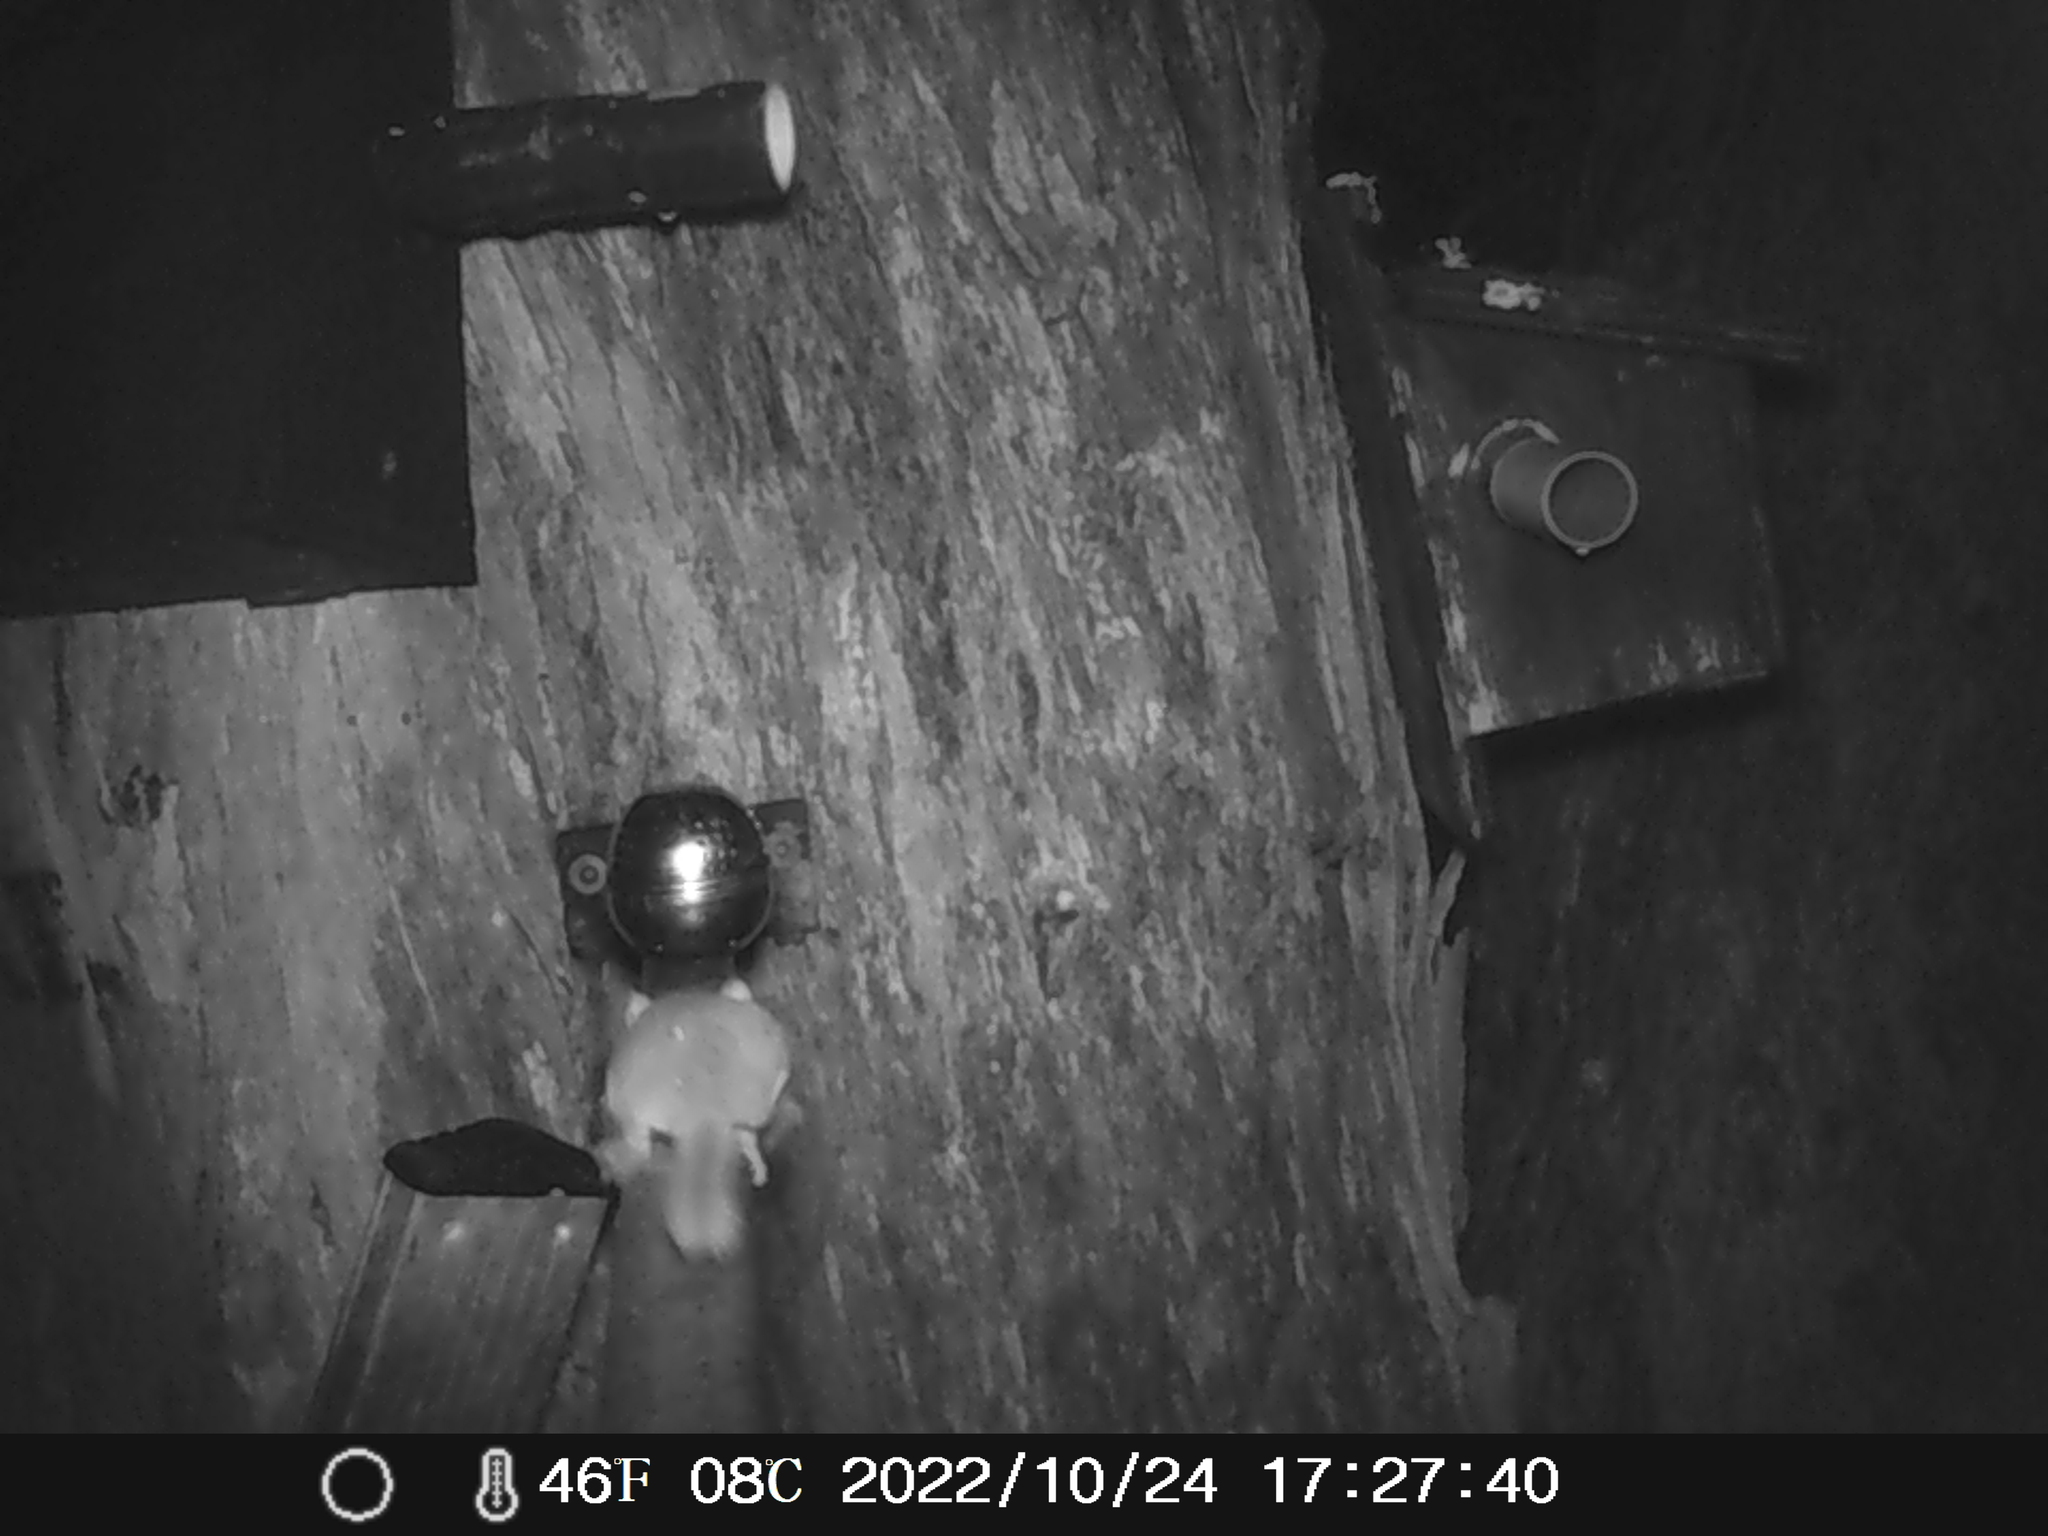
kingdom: Animalia
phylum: Chordata
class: Mammalia
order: Diprotodontia
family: Acrobatidae
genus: Acrobates
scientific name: Acrobates pygmaeus
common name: Feathertail glider
